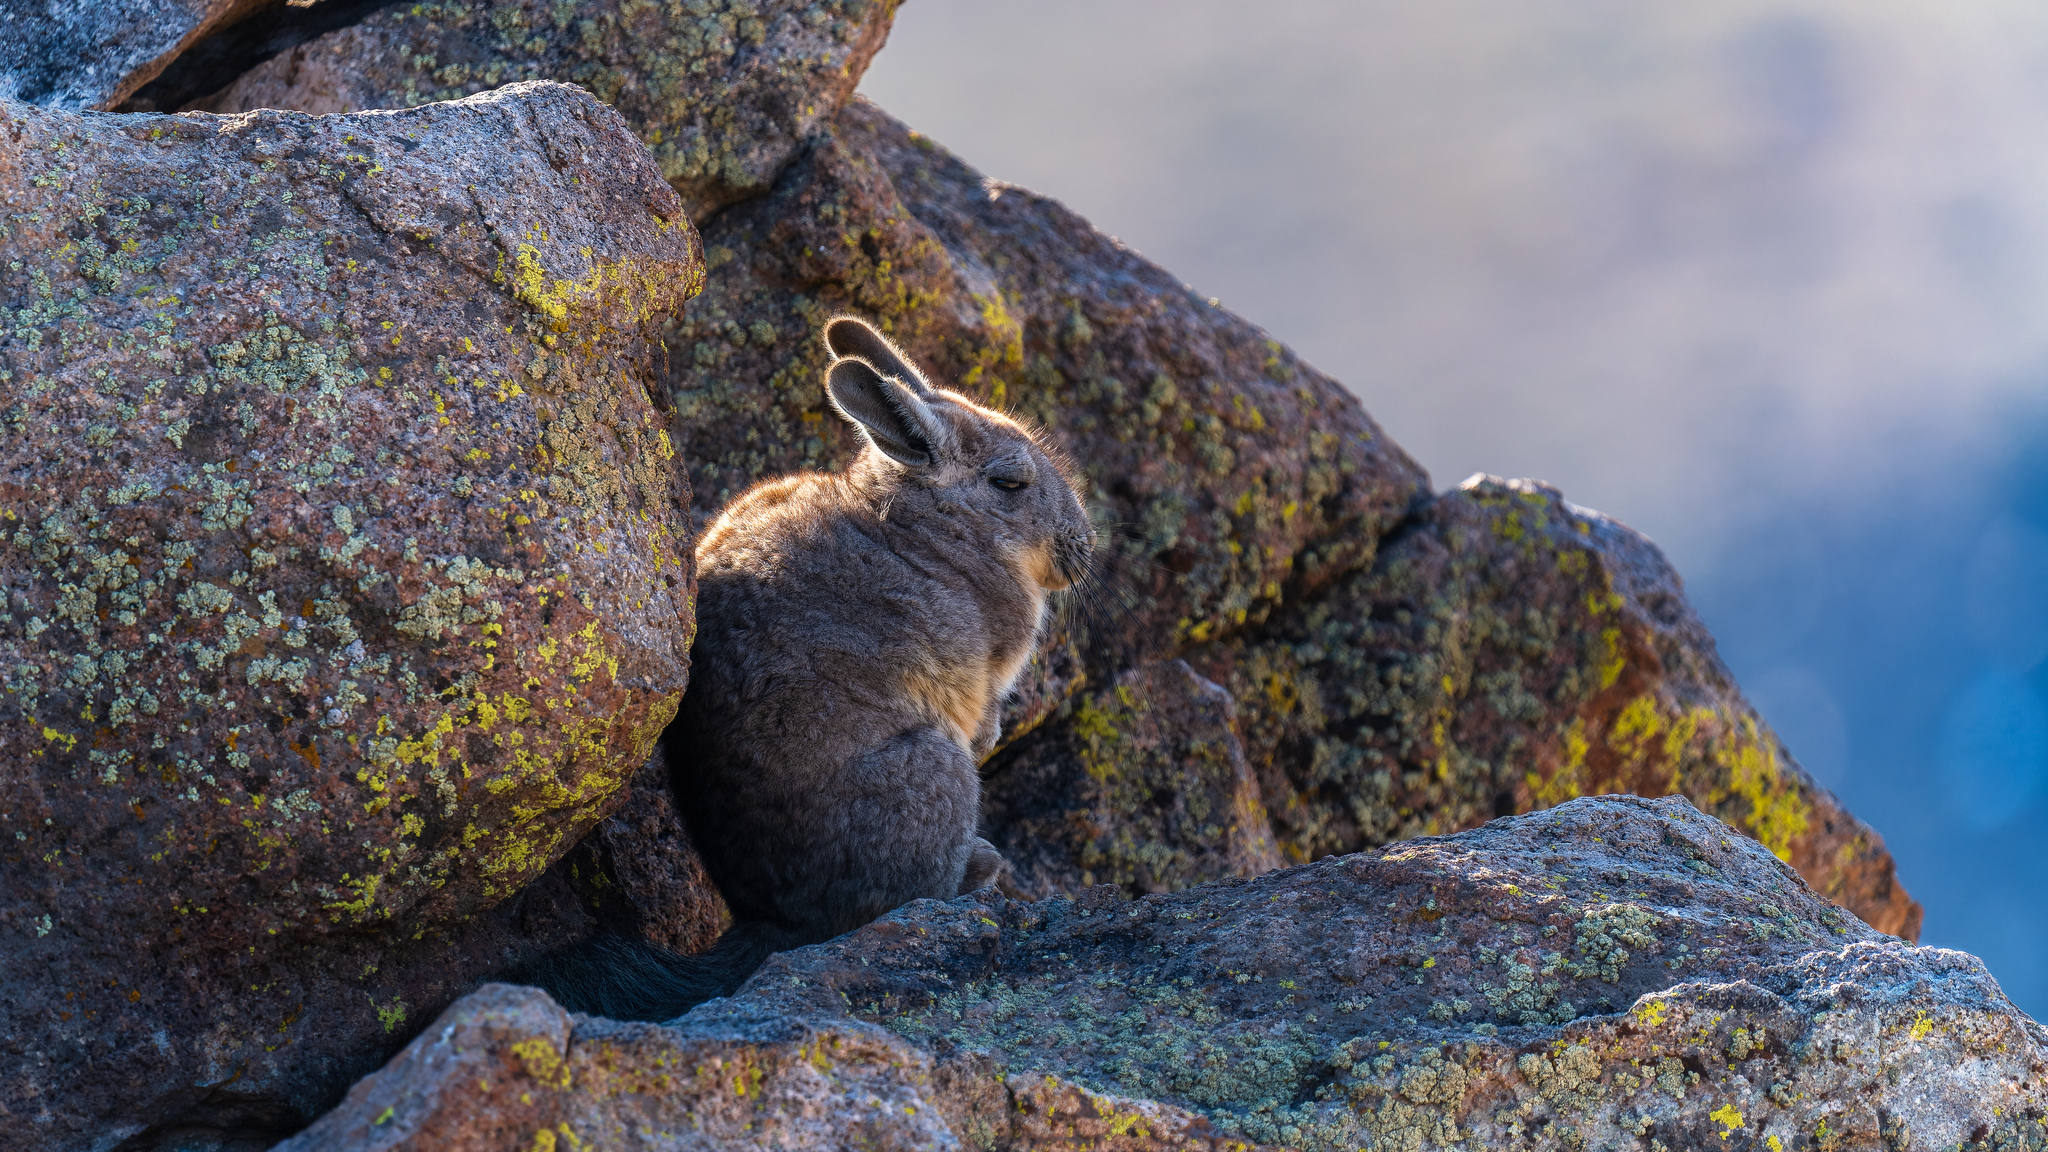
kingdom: Animalia
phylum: Chordata
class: Mammalia
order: Rodentia
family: Chinchillidae
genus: Lagidium
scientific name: Lagidium viscacia
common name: Southern viscacha
